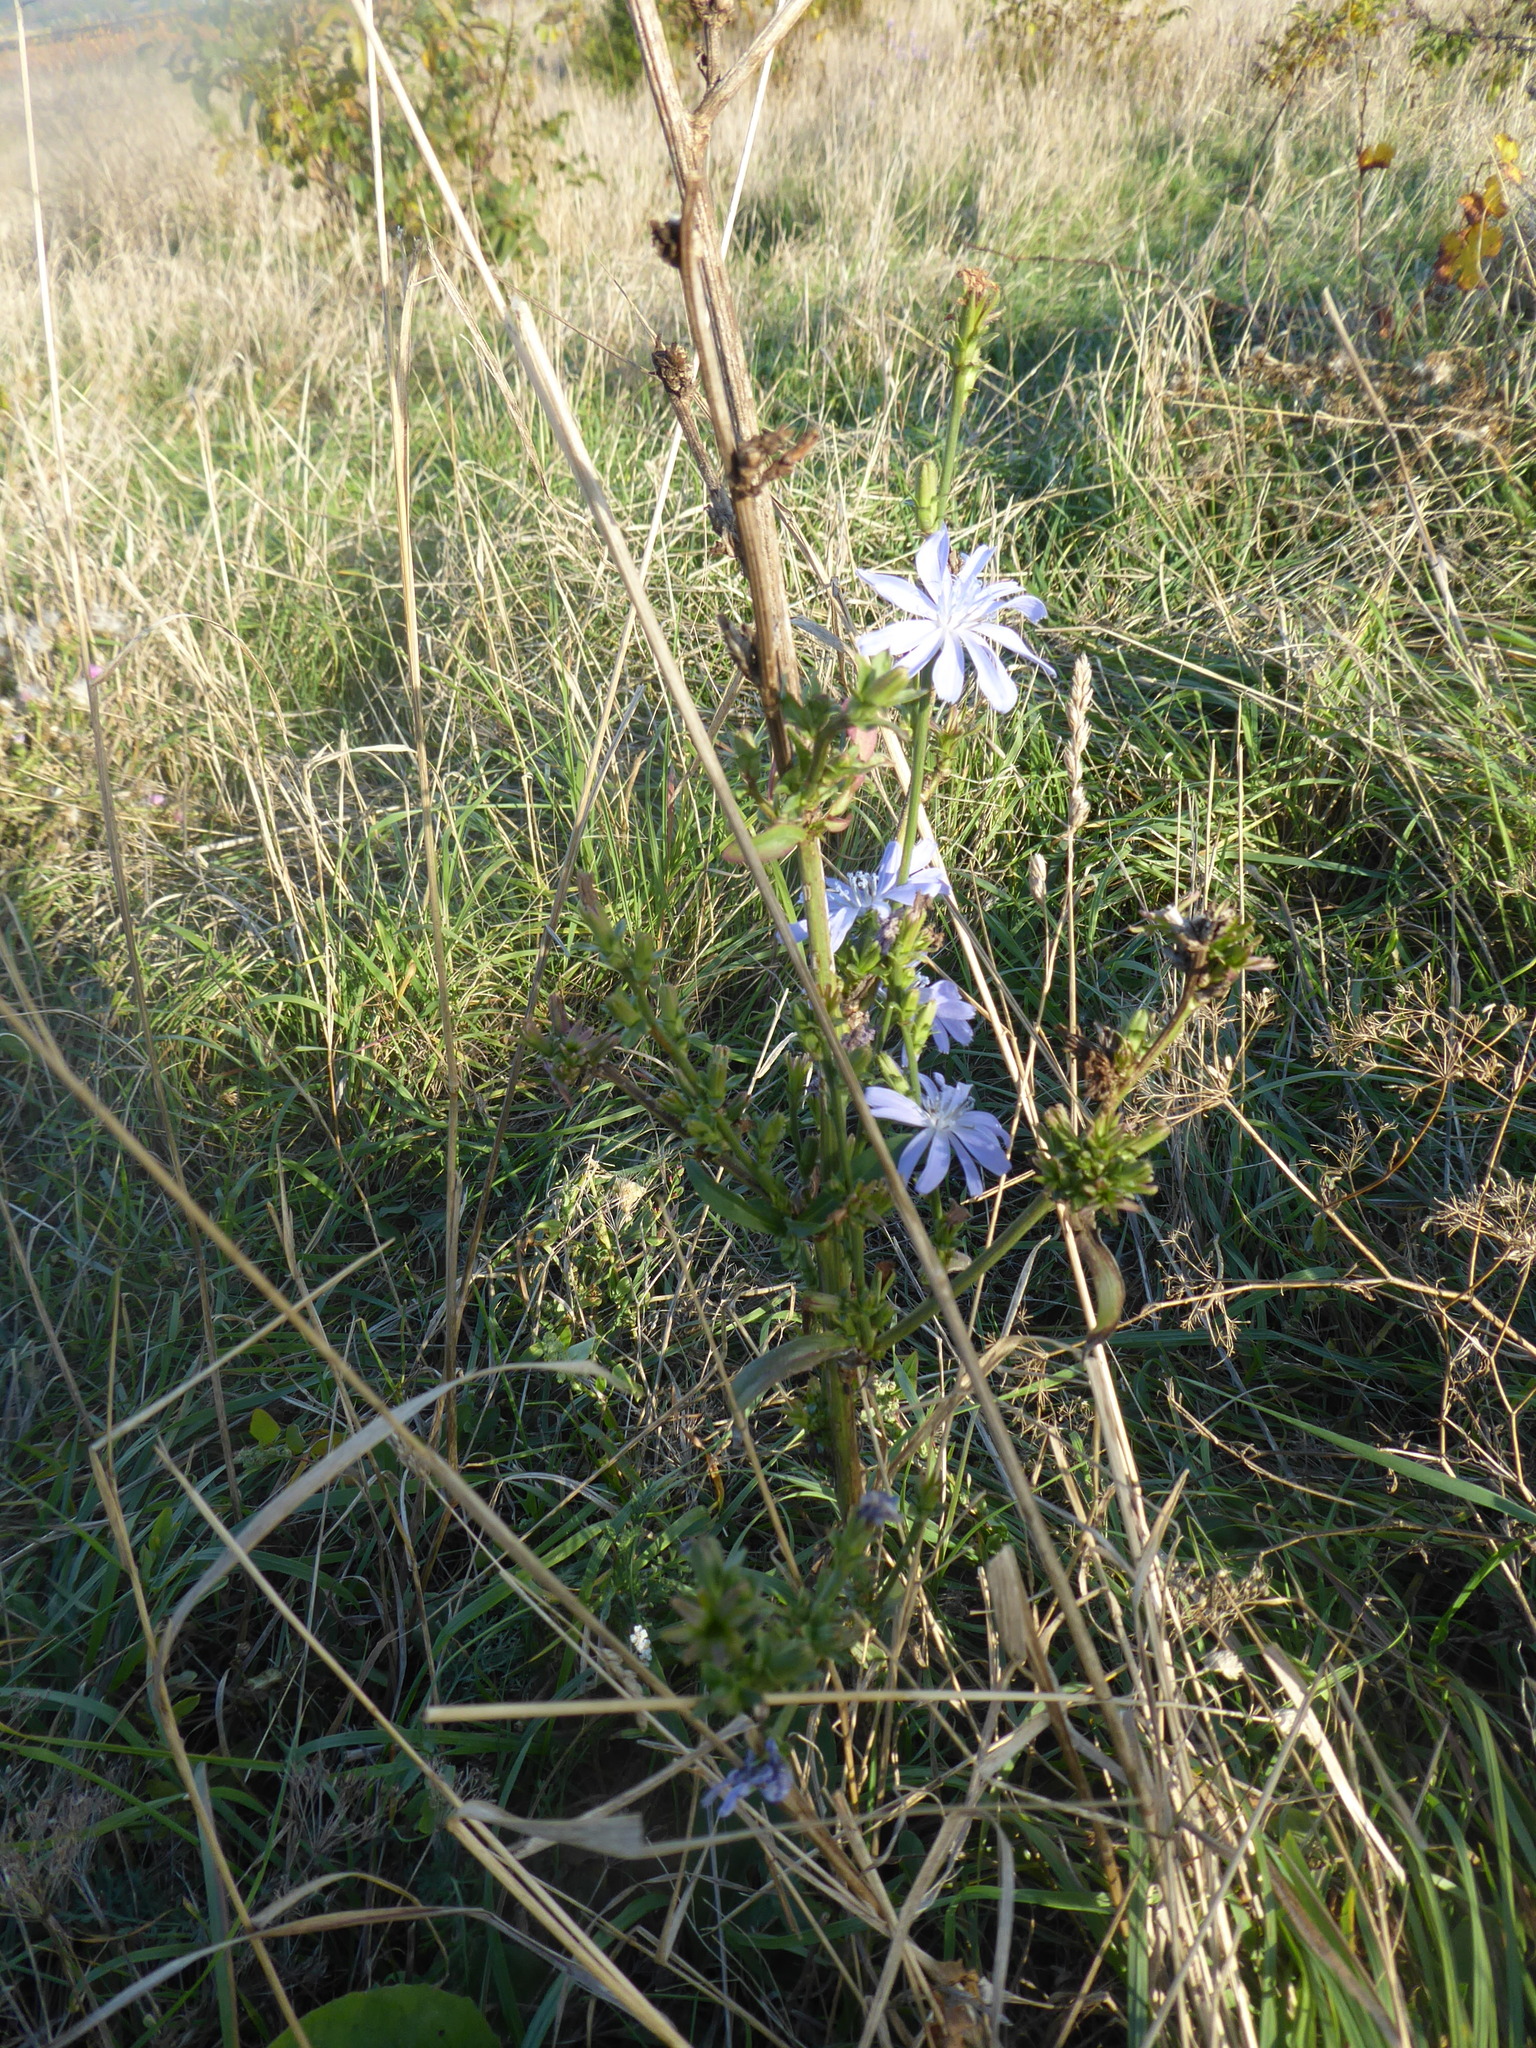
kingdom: Plantae
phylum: Tracheophyta
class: Magnoliopsida
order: Asterales
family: Asteraceae
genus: Cichorium
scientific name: Cichorium intybus
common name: Chicory
